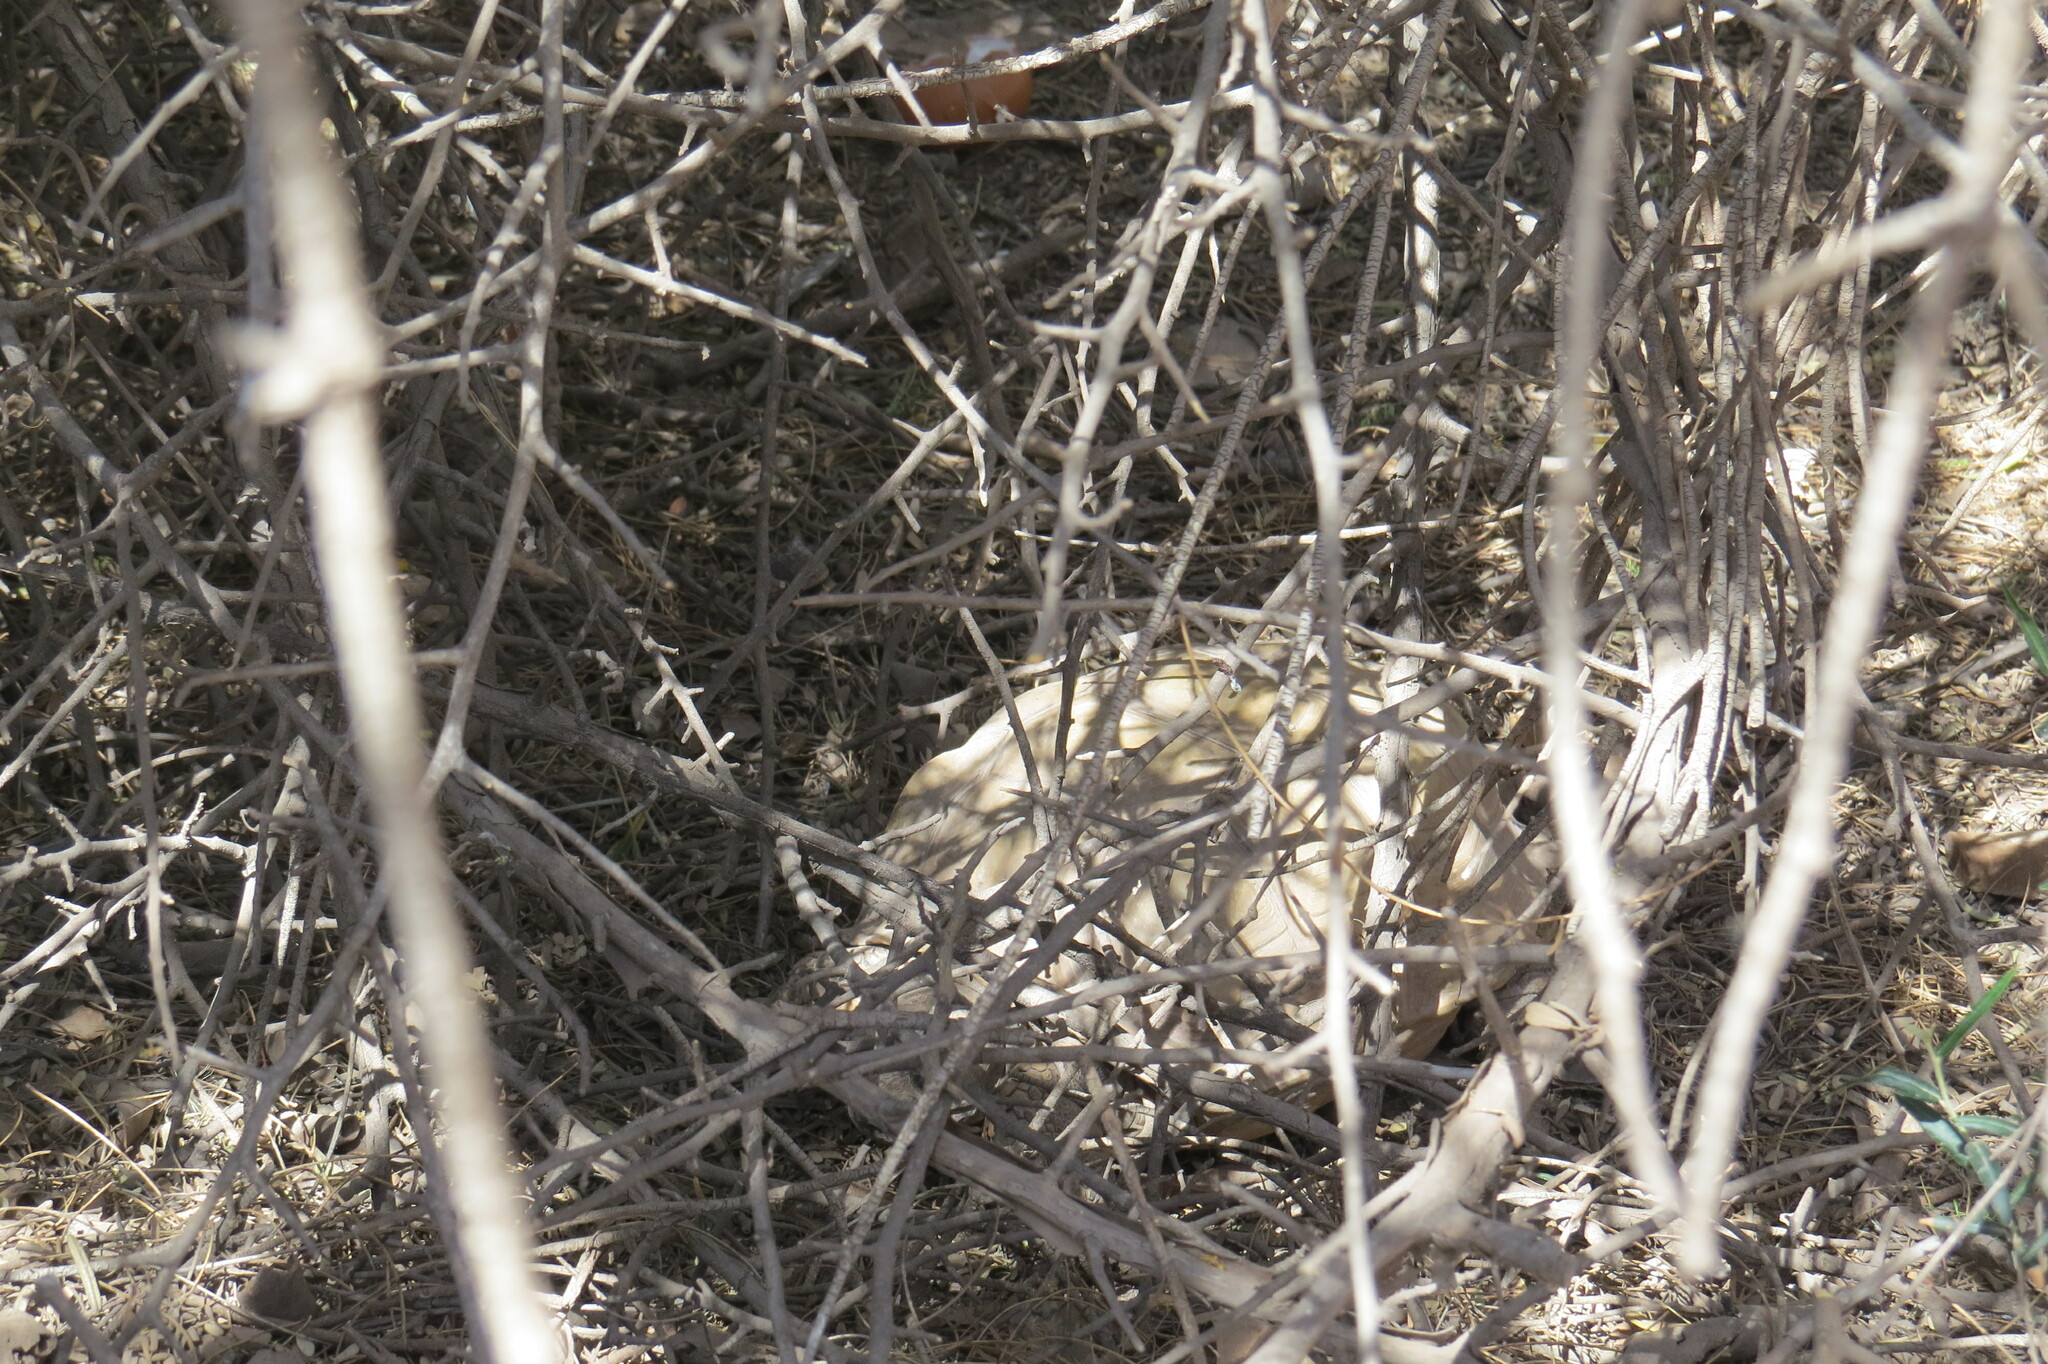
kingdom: Animalia
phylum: Chordata
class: Testudines
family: Testudinidae
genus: Chelonoidis
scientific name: Chelonoidis chilensis
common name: Chaco tortoise
